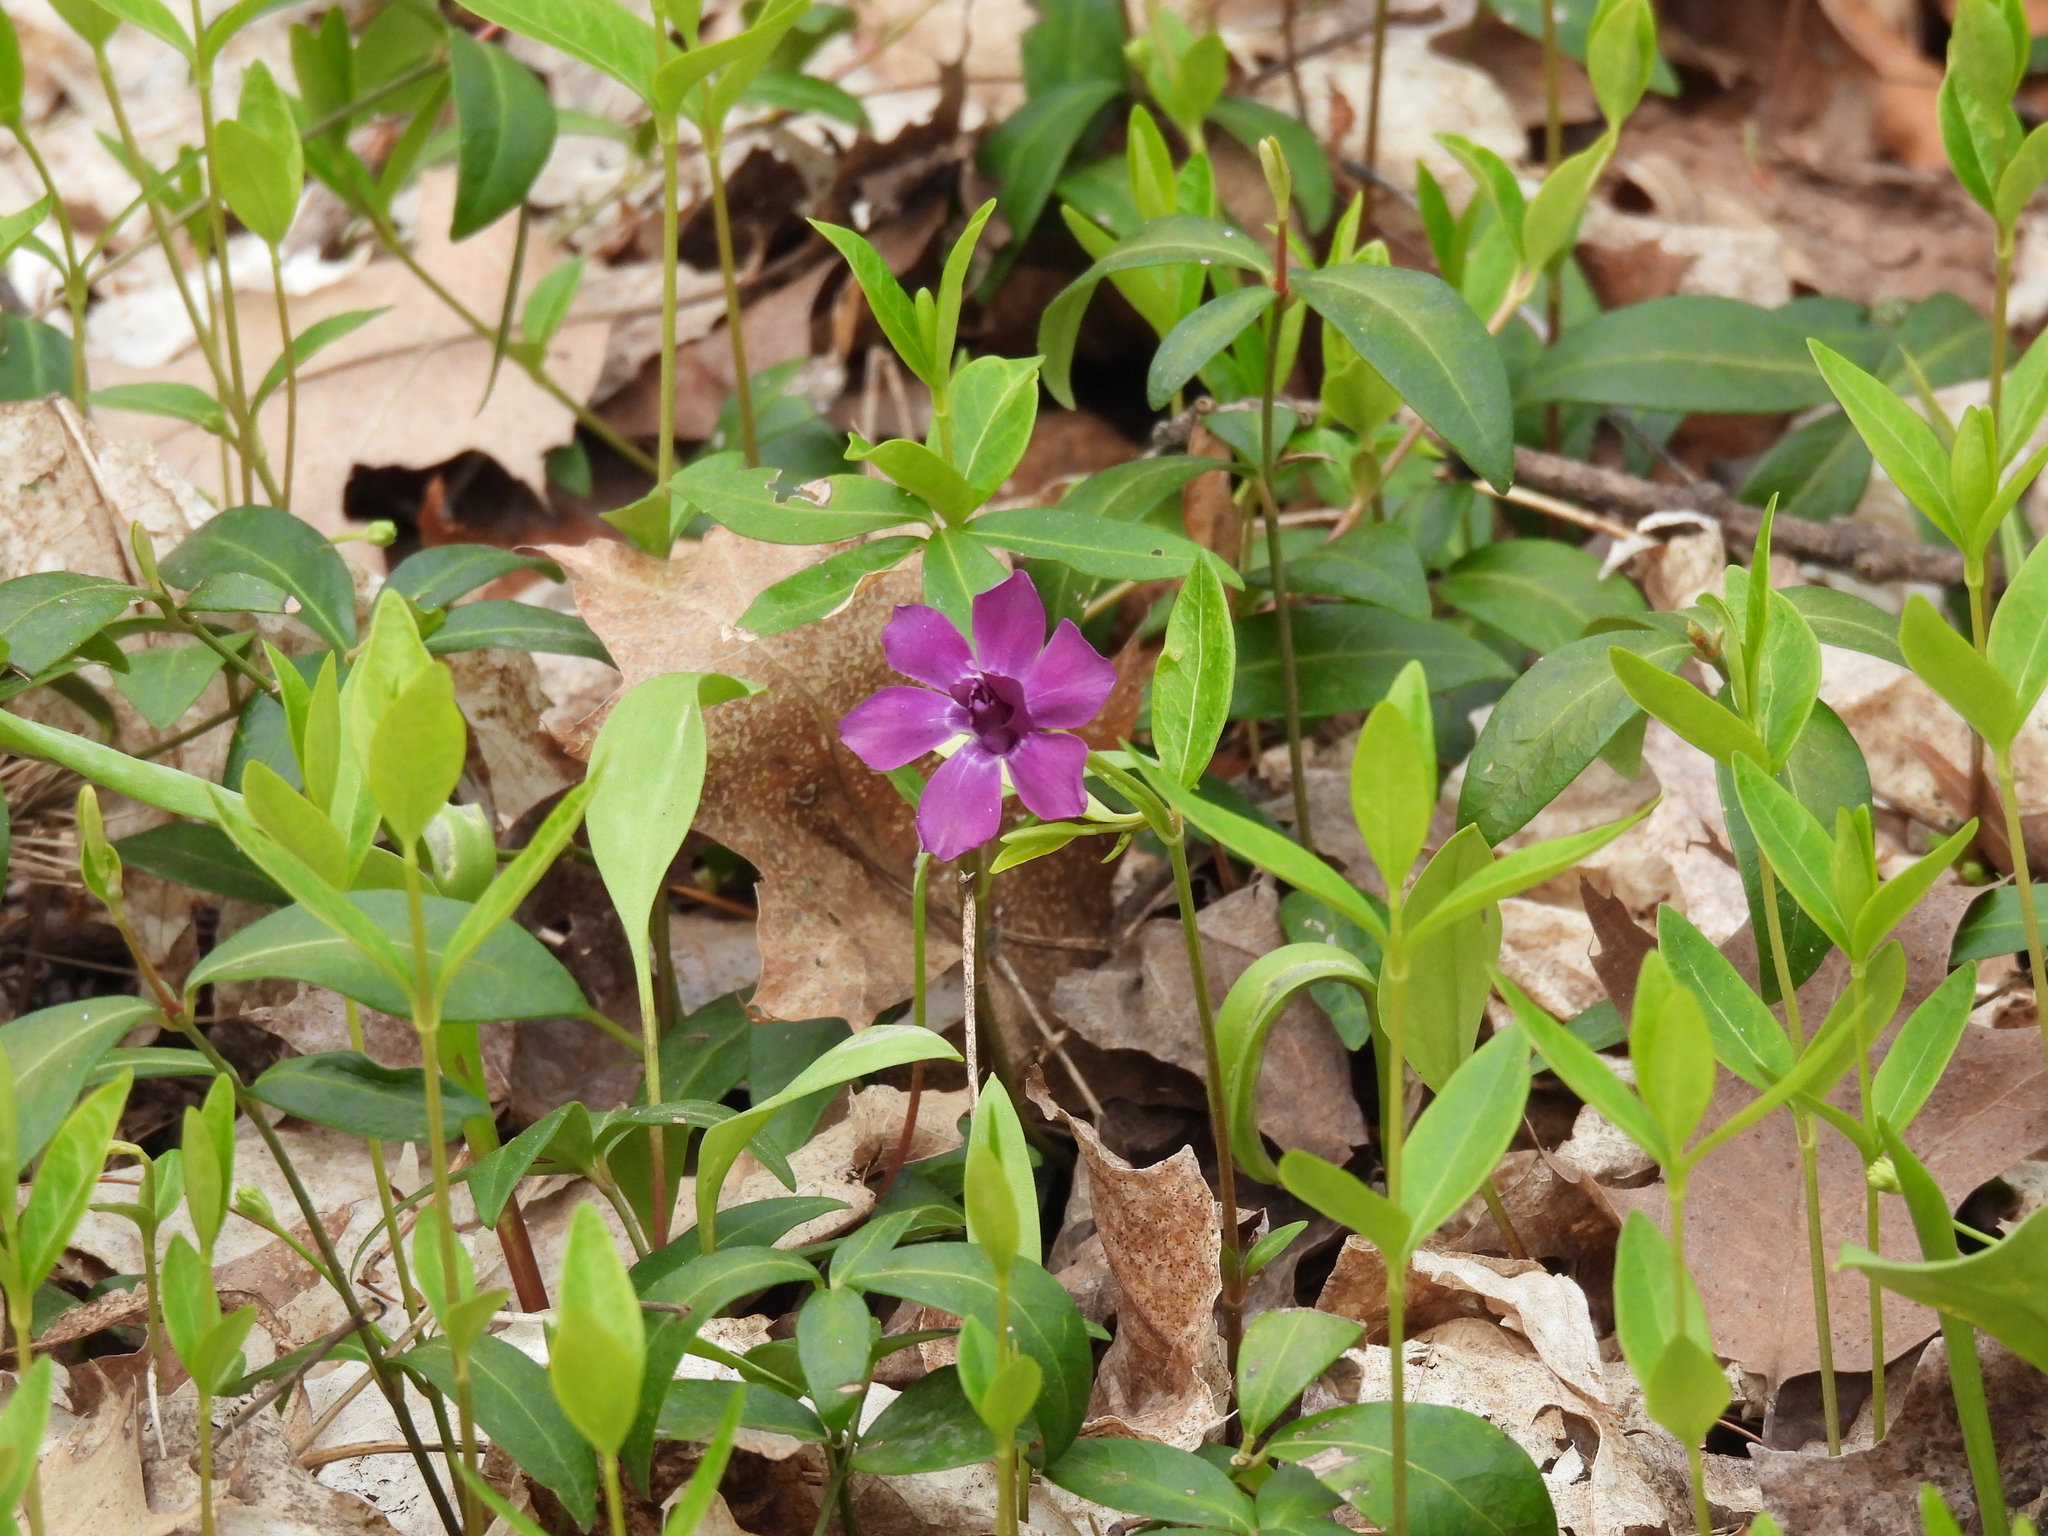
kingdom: Plantae
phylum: Tracheophyta
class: Magnoliopsida
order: Gentianales
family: Apocynaceae
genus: Vinca
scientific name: Vinca minor
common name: Lesser periwinkle
